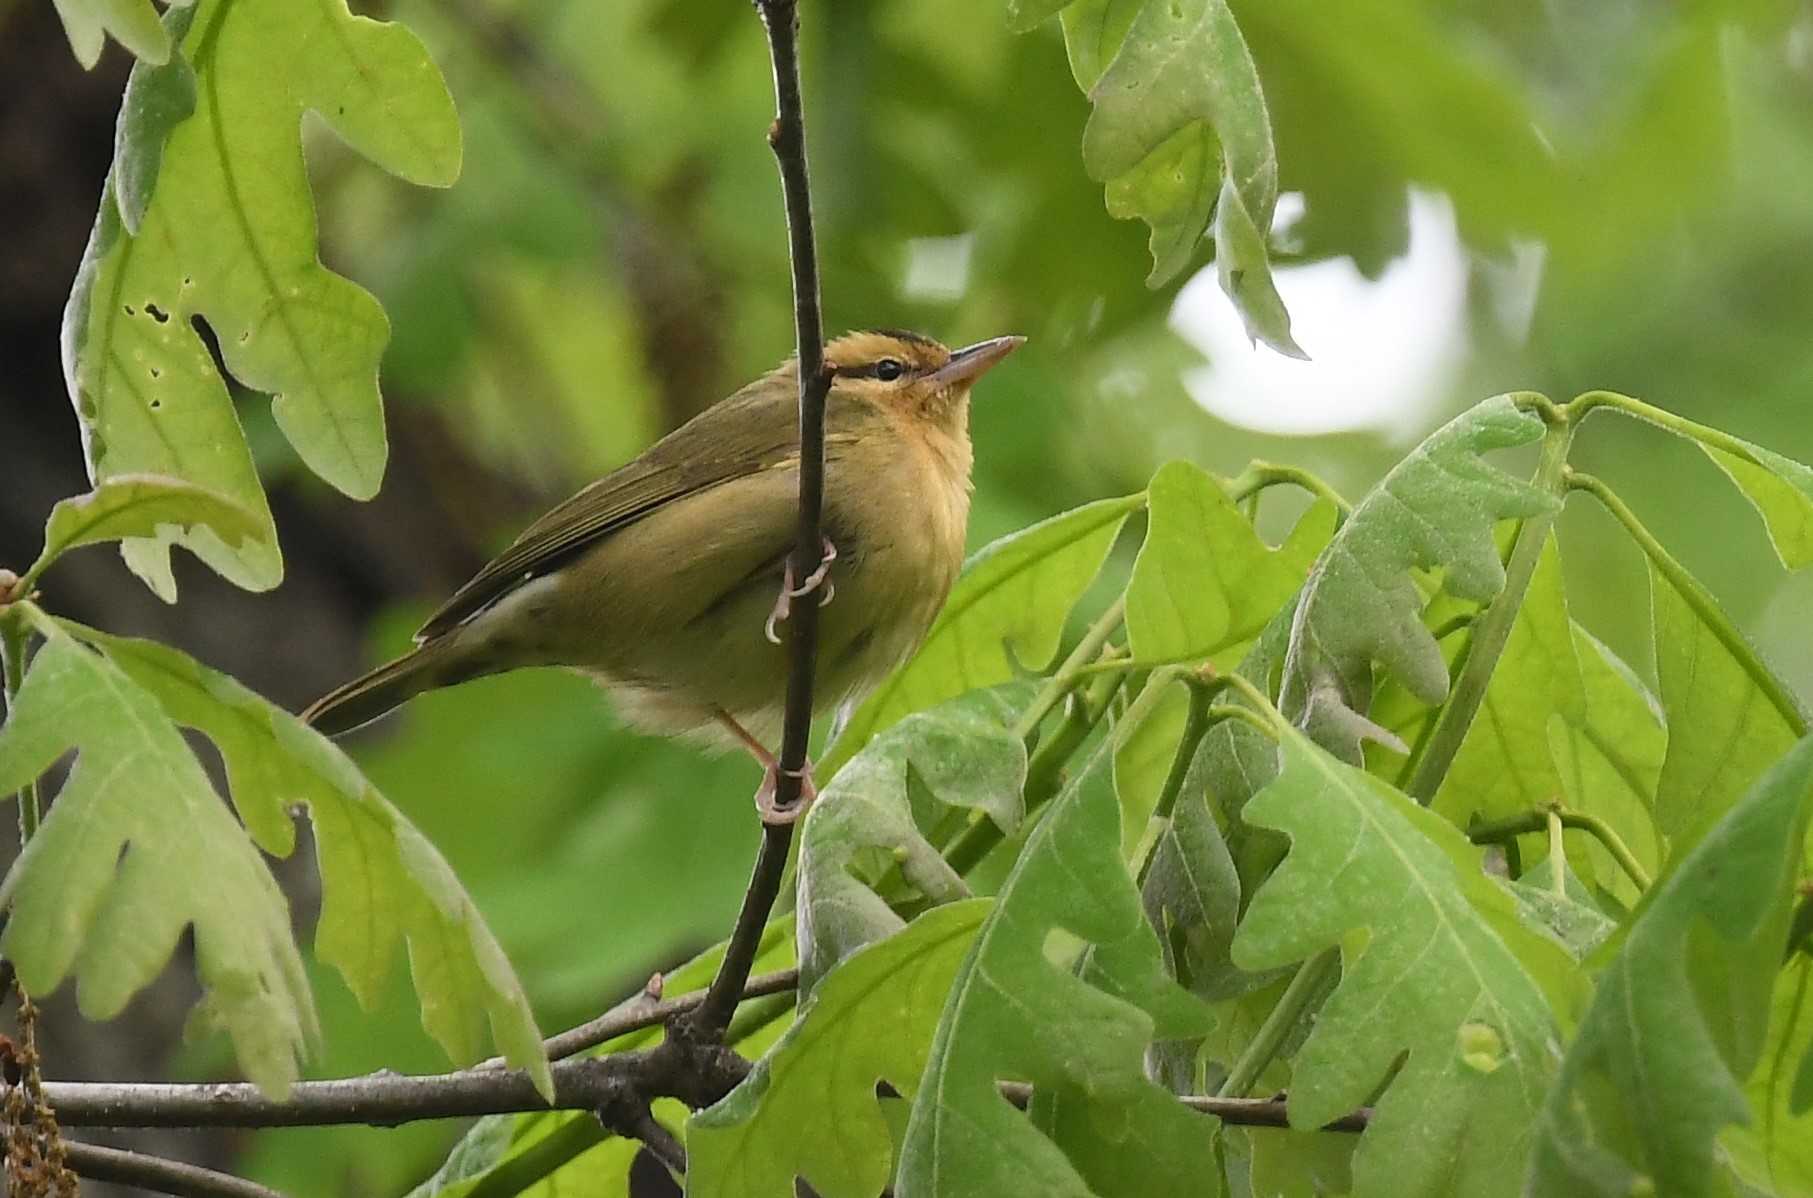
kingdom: Animalia
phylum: Chordata
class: Aves
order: Passeriformes
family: Parulidae
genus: Helmitheros
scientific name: Helmitheros vermivorum
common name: Worm-eating warbler
